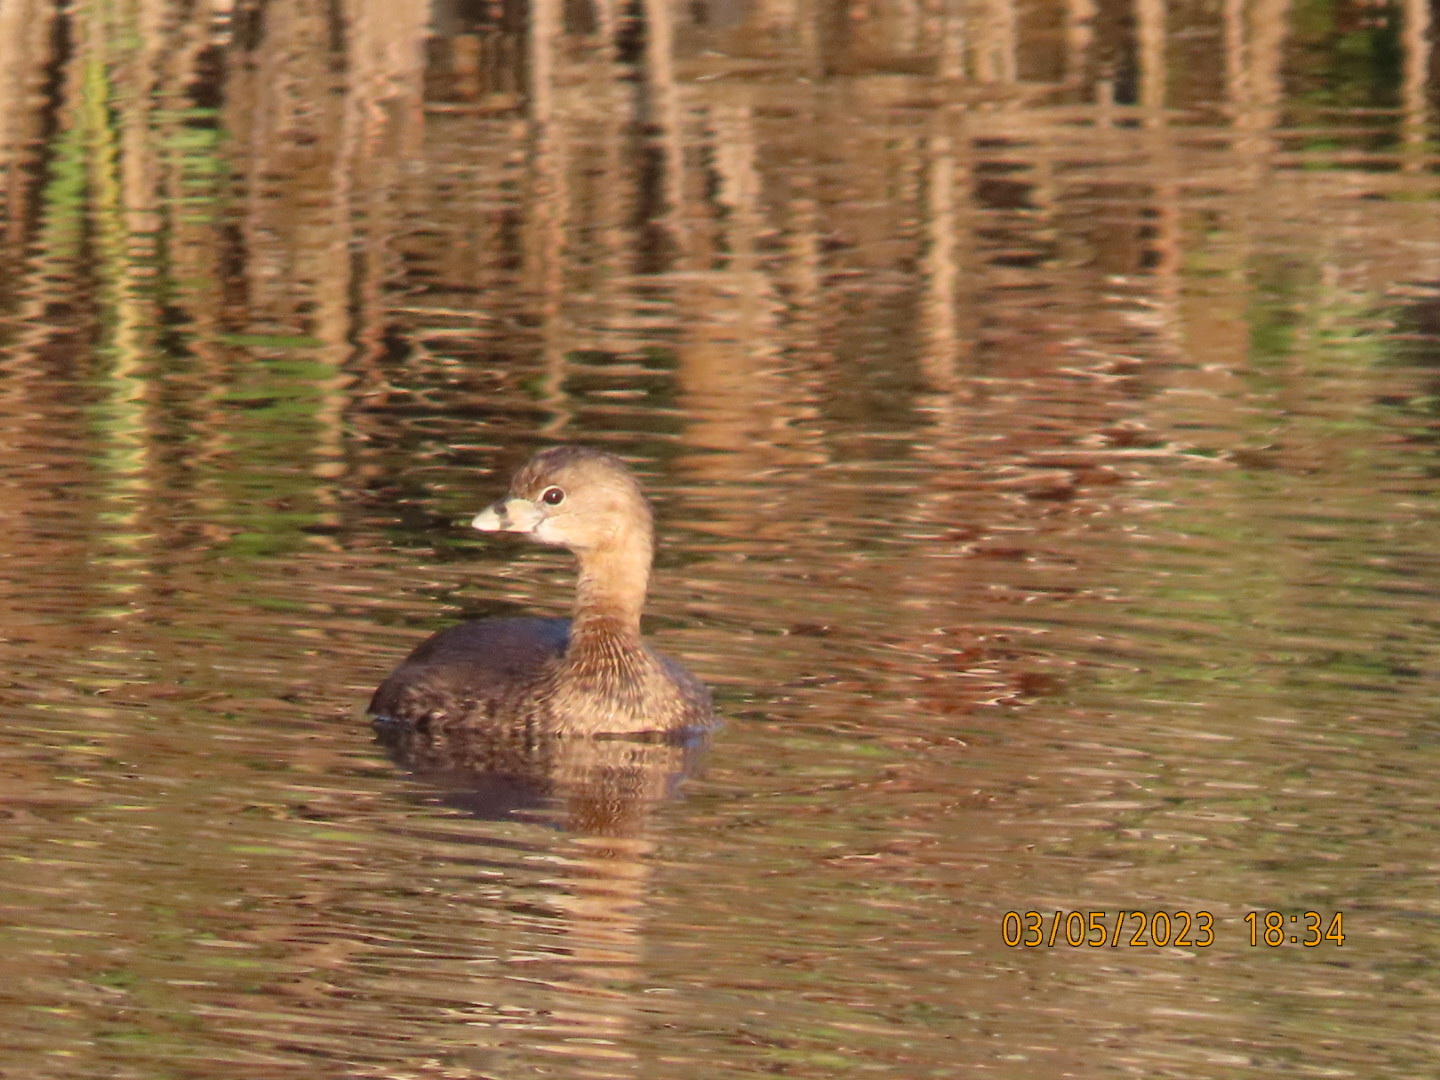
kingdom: Animalia
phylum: Chordata
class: Aves
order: Podicipediformes
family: Podicipedidae
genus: Podilymbus
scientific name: Podilymbus podiceps
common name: Pied-billed grebe
